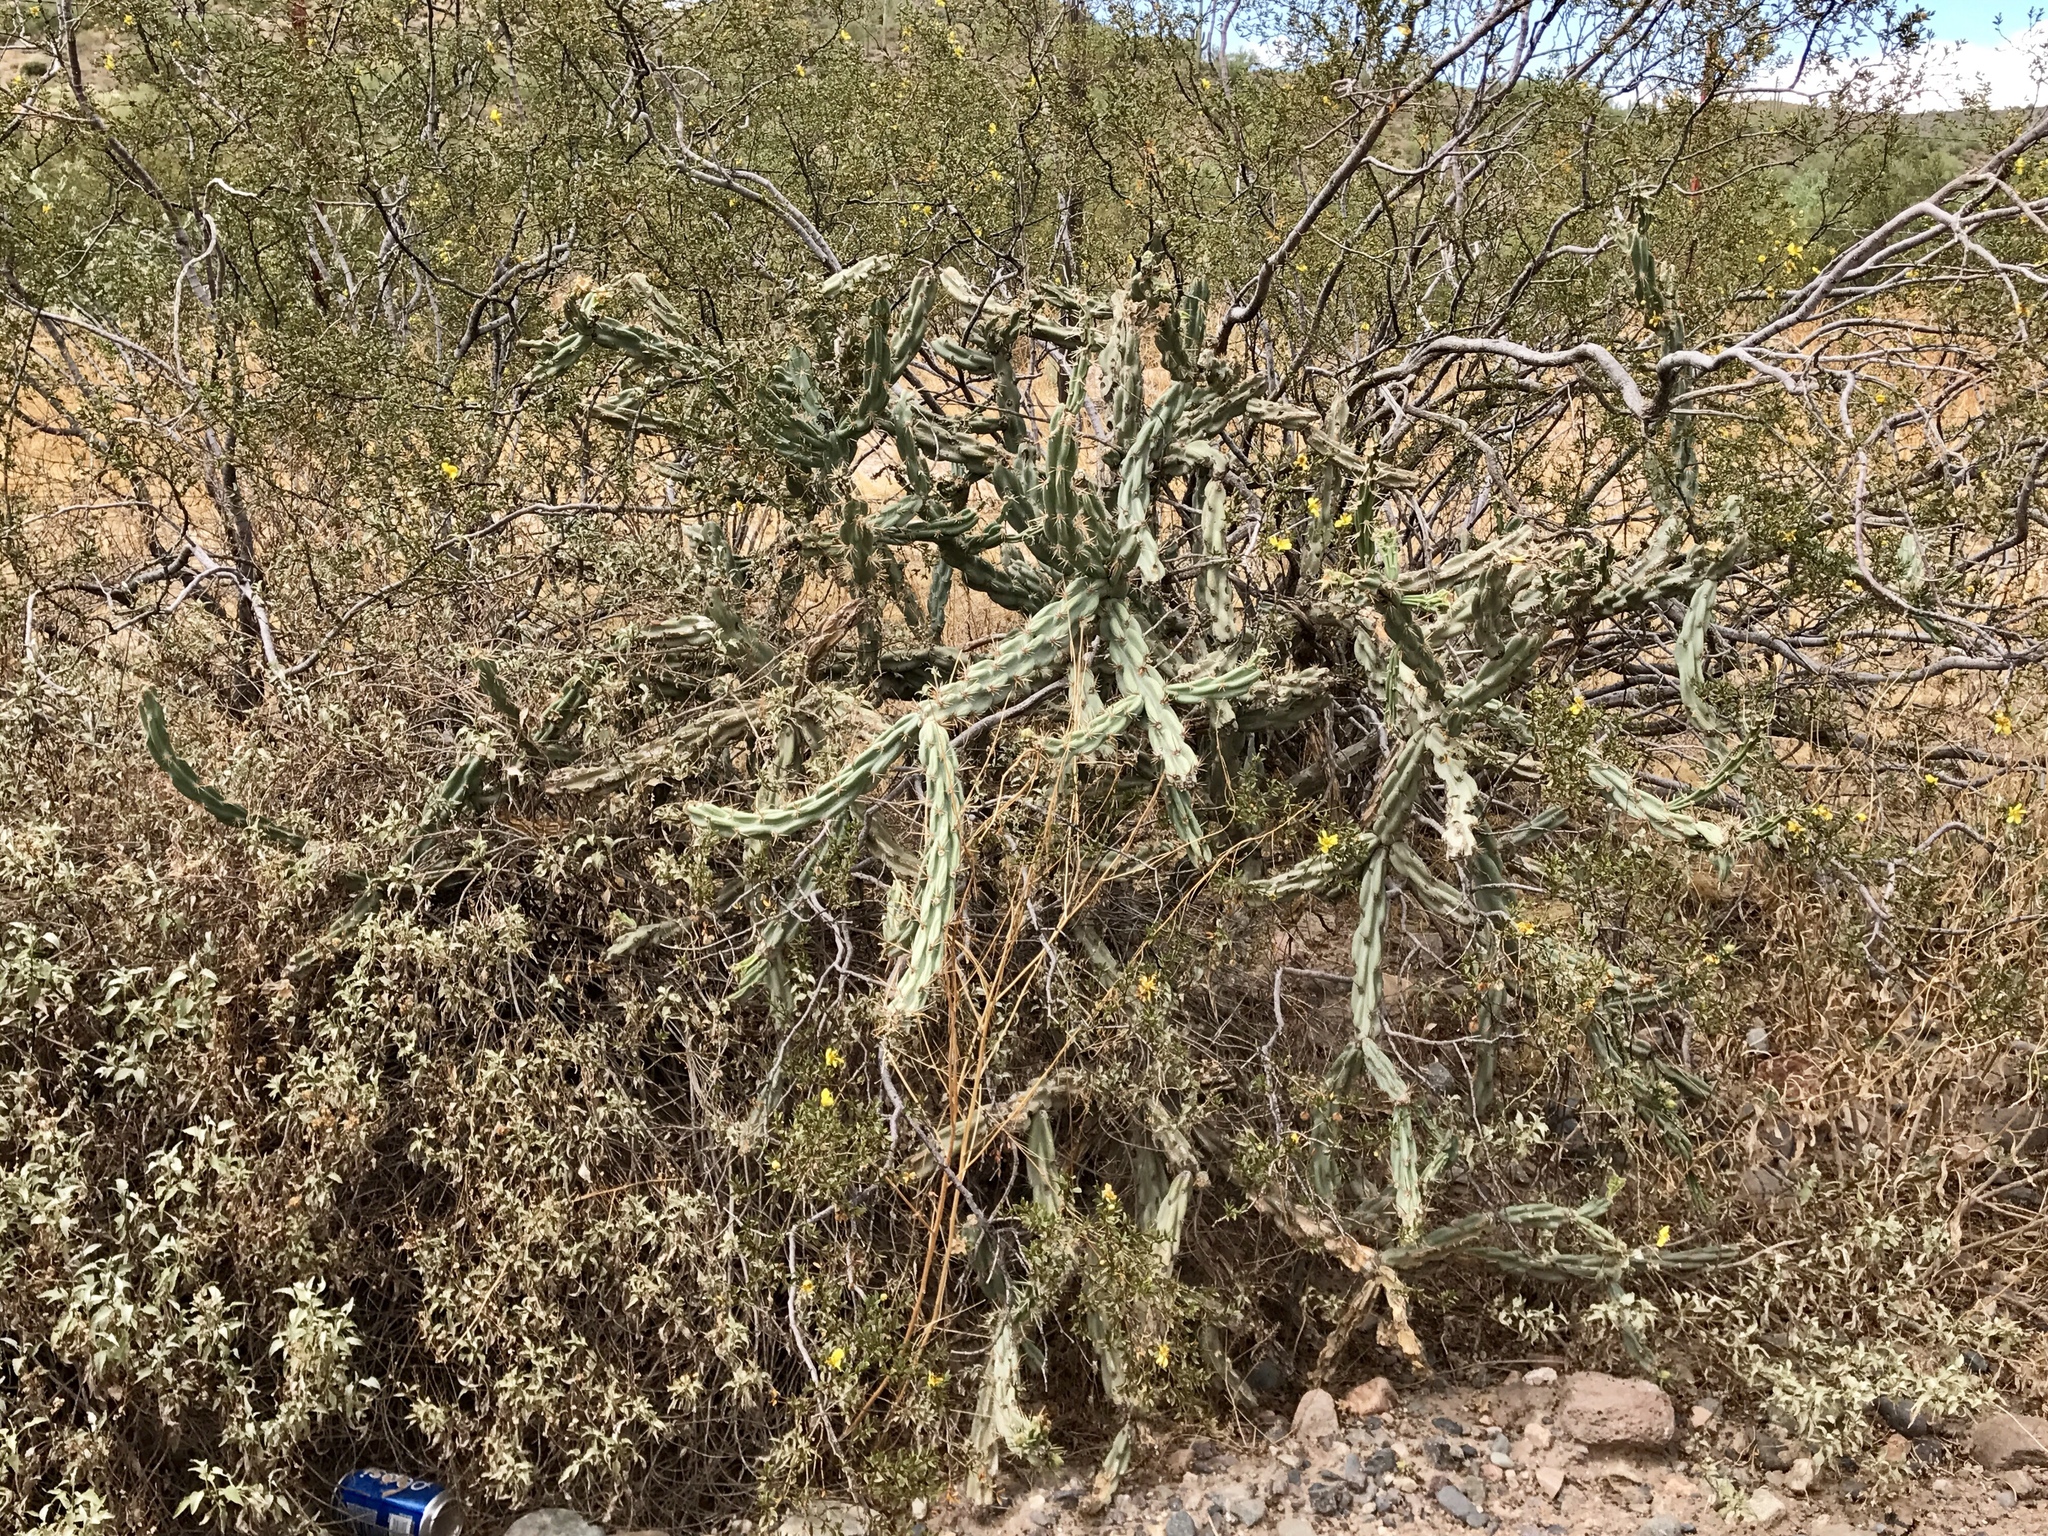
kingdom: Plantae
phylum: Tracheophyta
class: Magnoliopsida
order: Caryophyllales
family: Cactaceae
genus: Cylindropuntia
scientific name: Cylindropuntia acanthocarpa
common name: Buckhorn cholla
